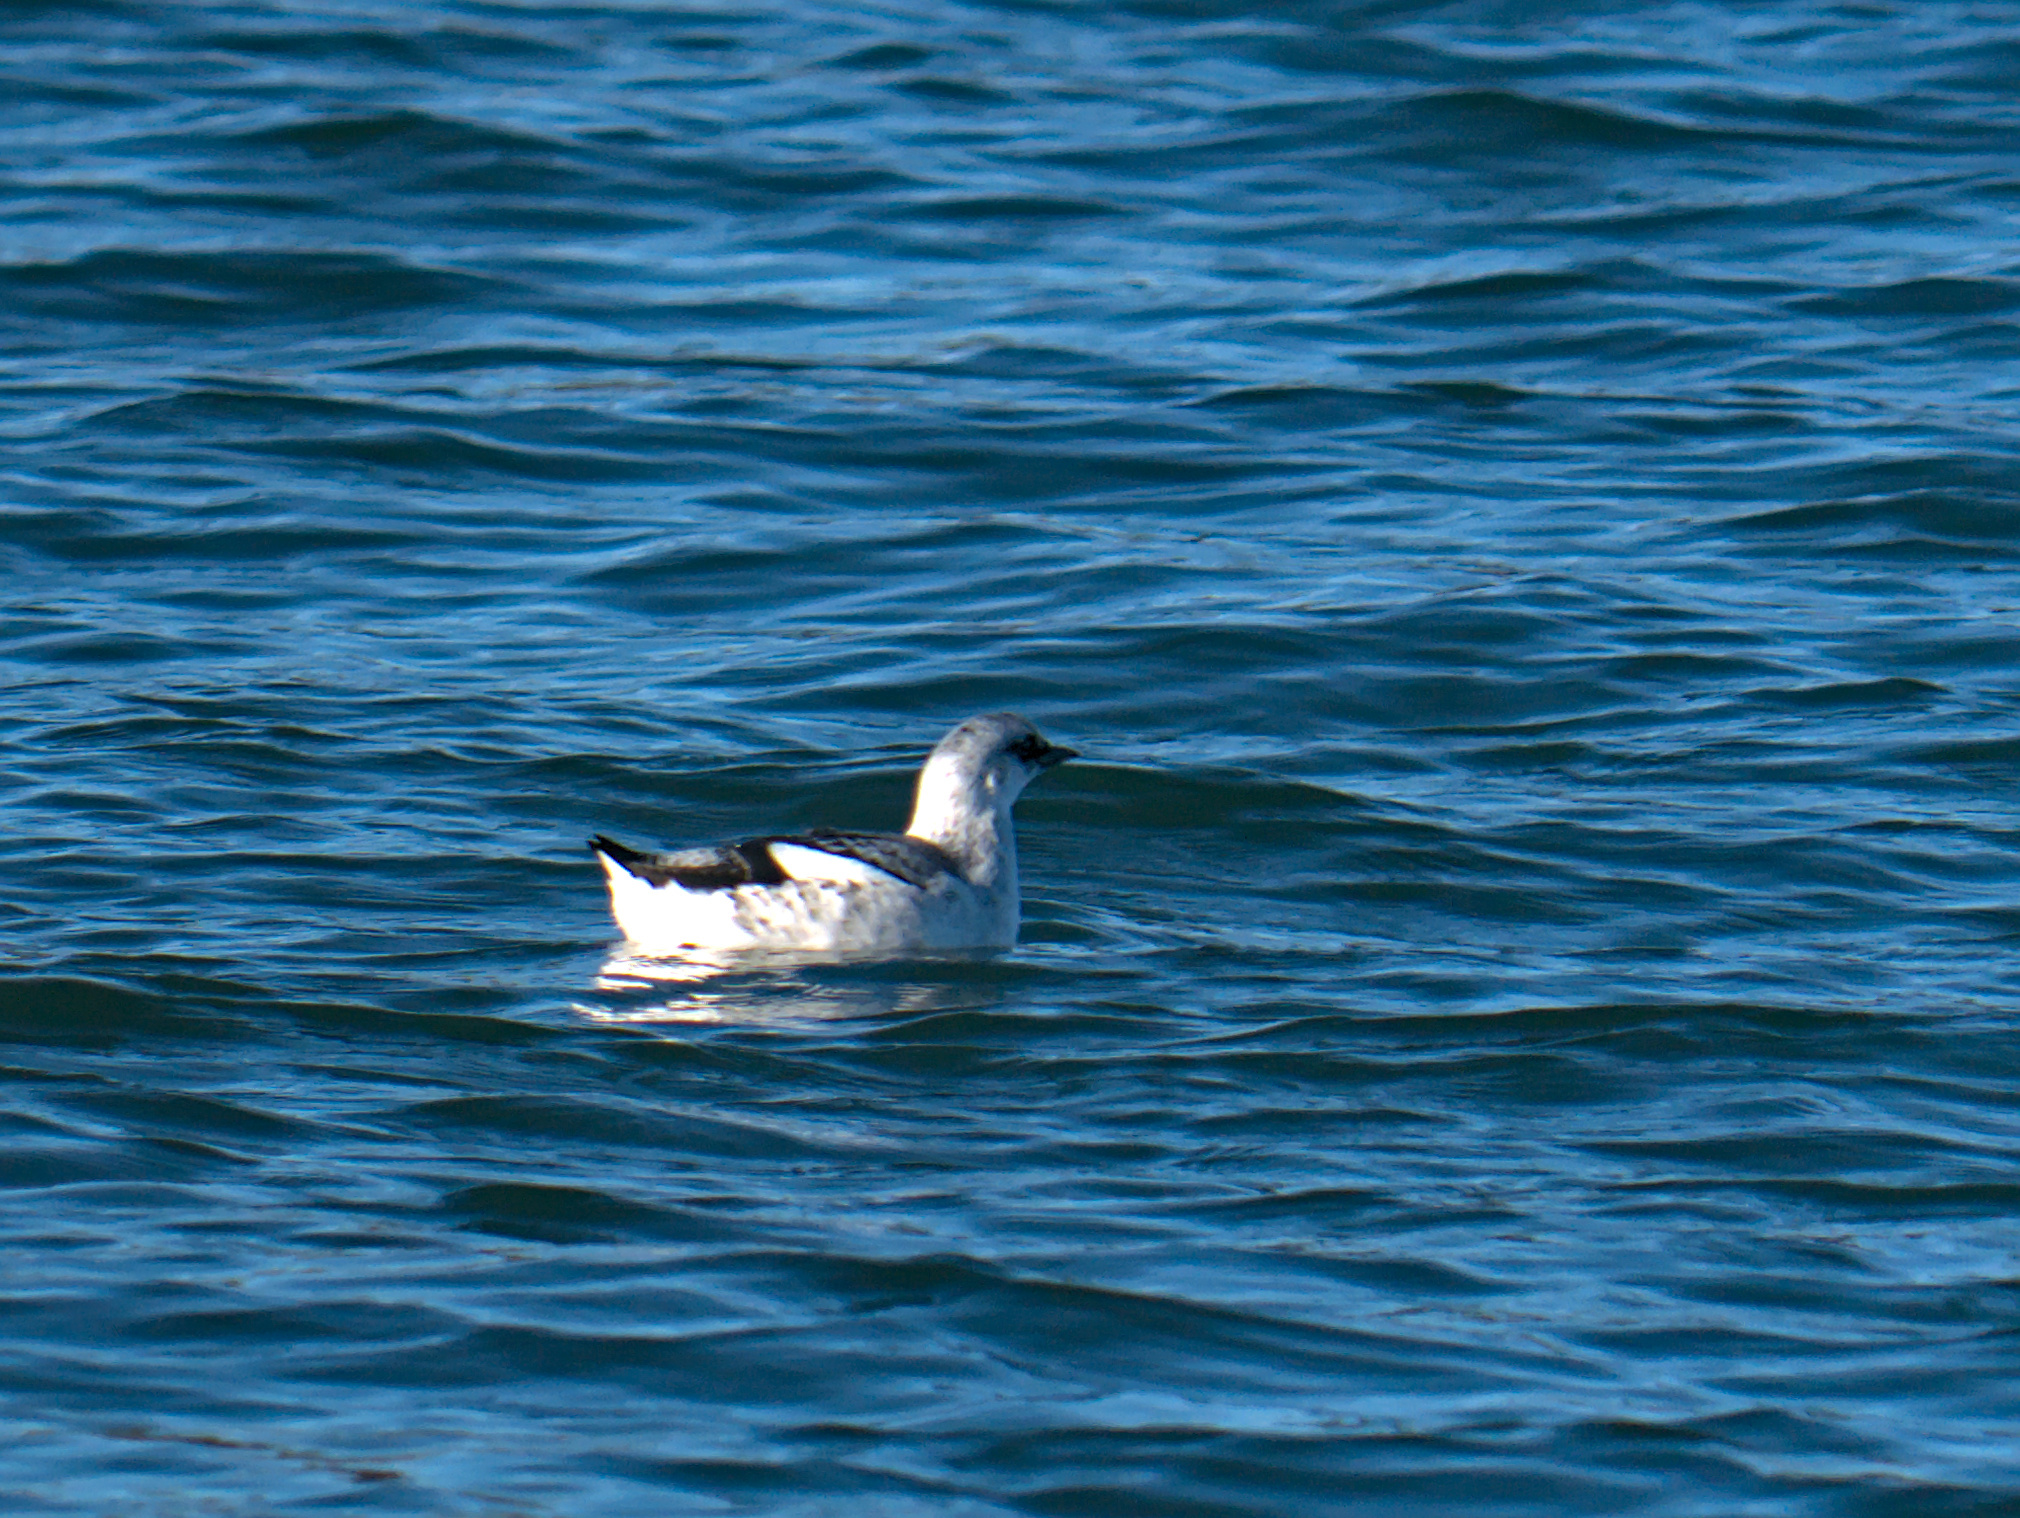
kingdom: Animalia
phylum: Chordata
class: Aves
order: Charadriiformes
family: Alcidae
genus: Cepphus
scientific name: Cepphus grylle
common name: Black guillemot
